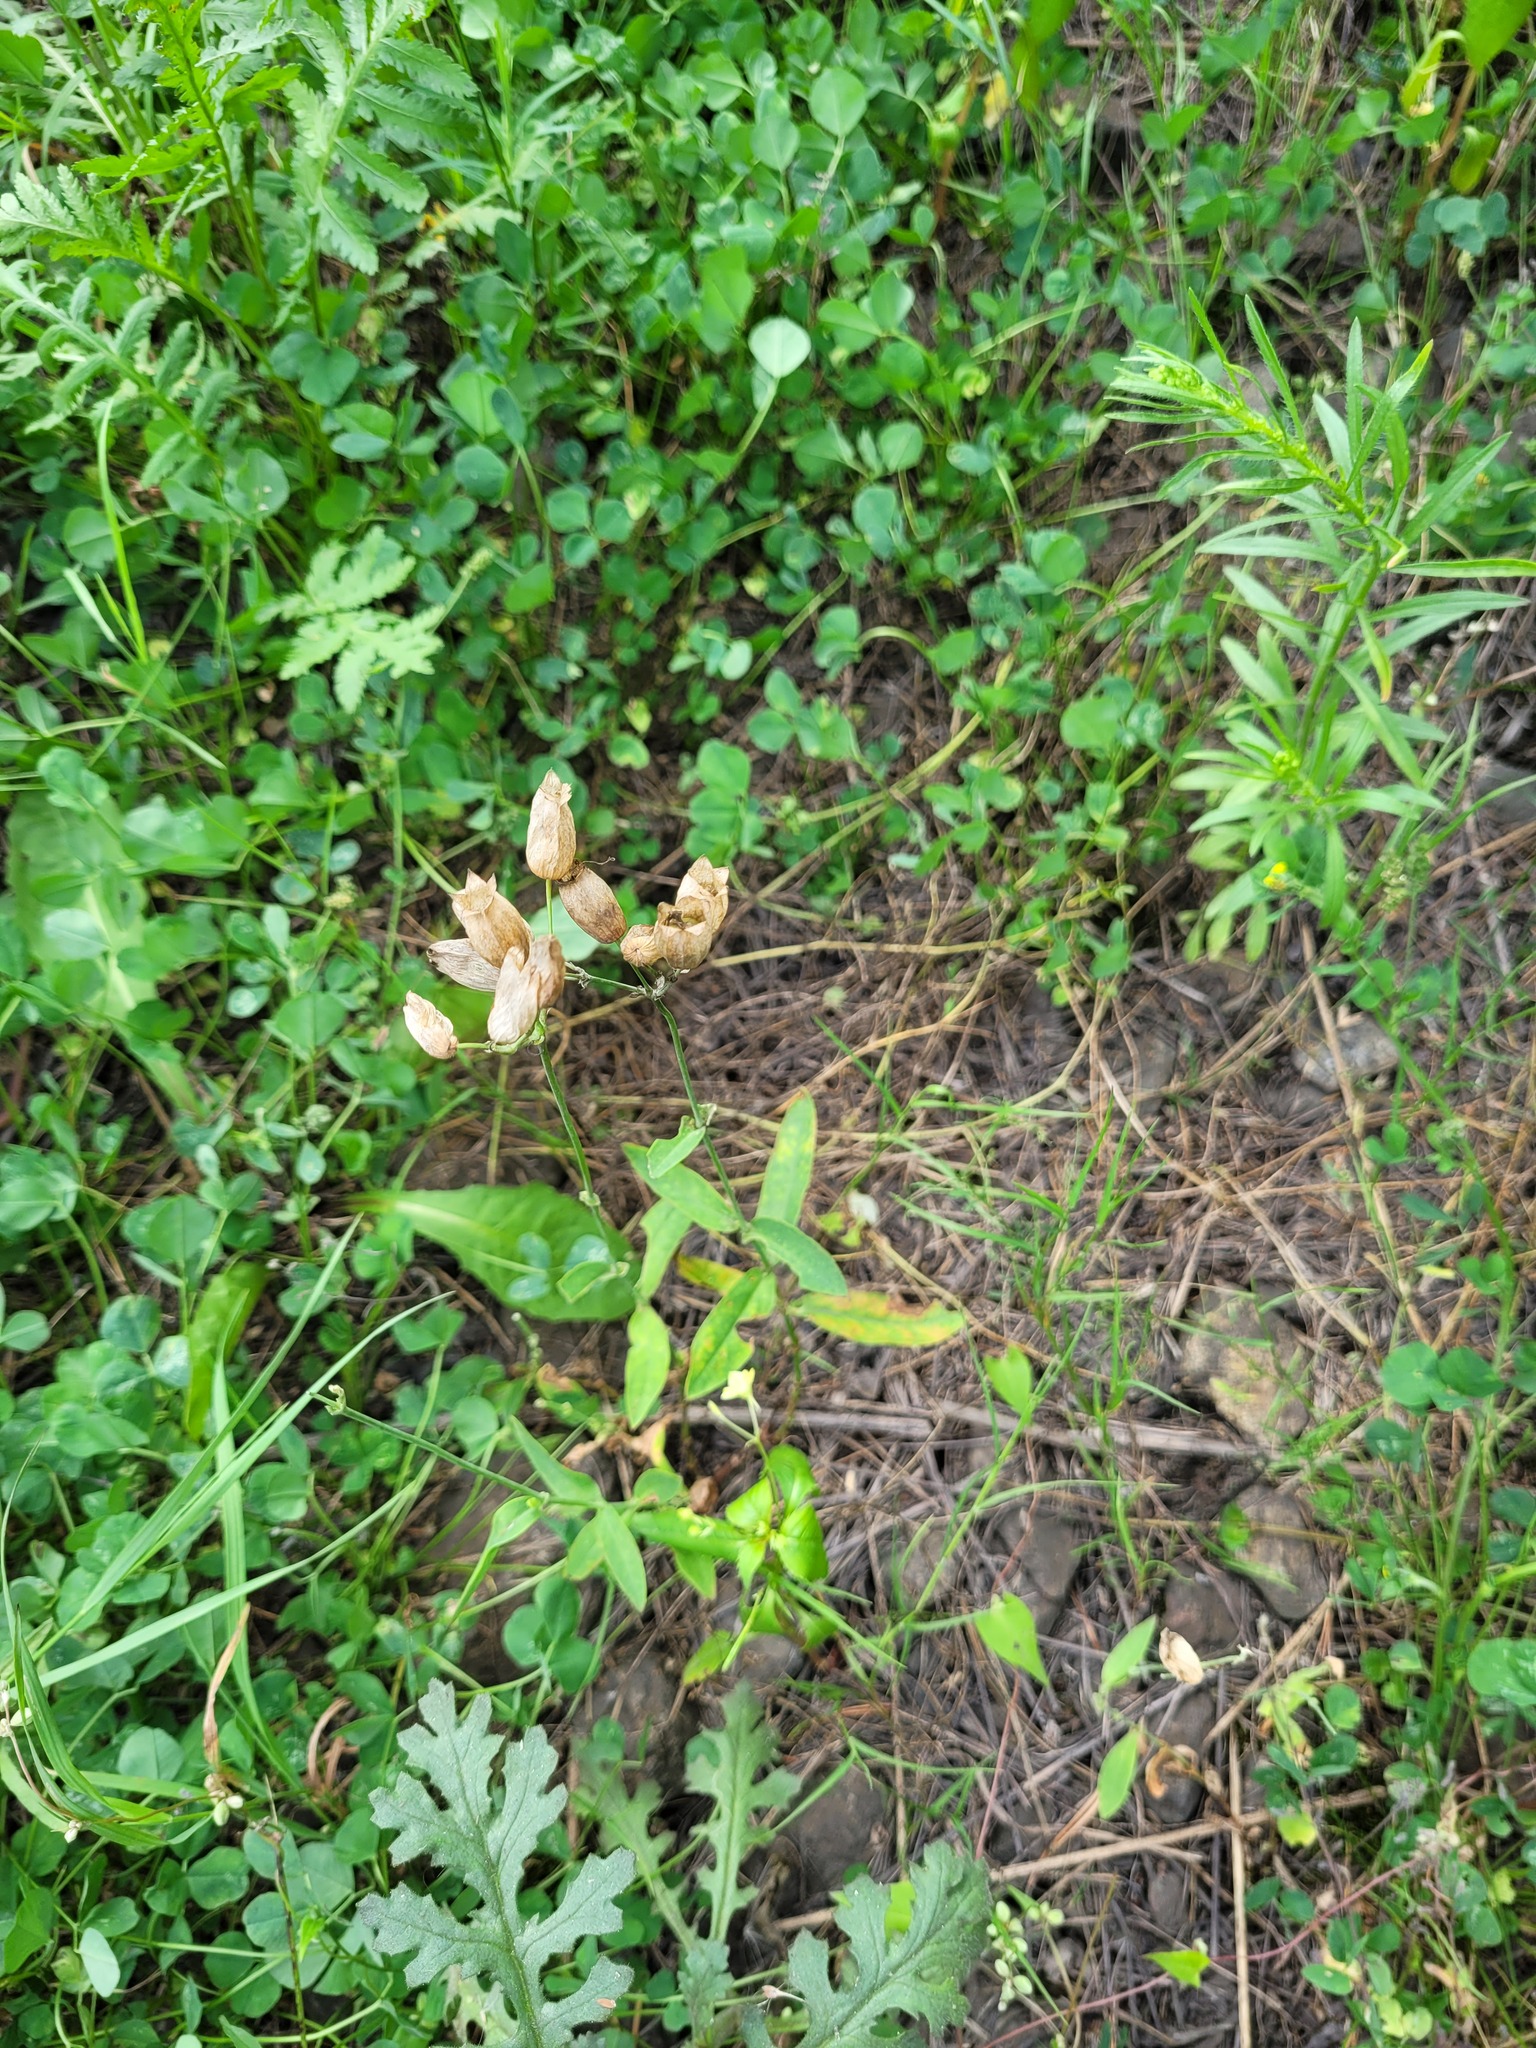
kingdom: Plantae
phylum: Tracheophyta
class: Magnoliopsida
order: Caryophyllales
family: Caryophyllaceae
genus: Silene
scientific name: Silene vulgaris
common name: Bladder campion
